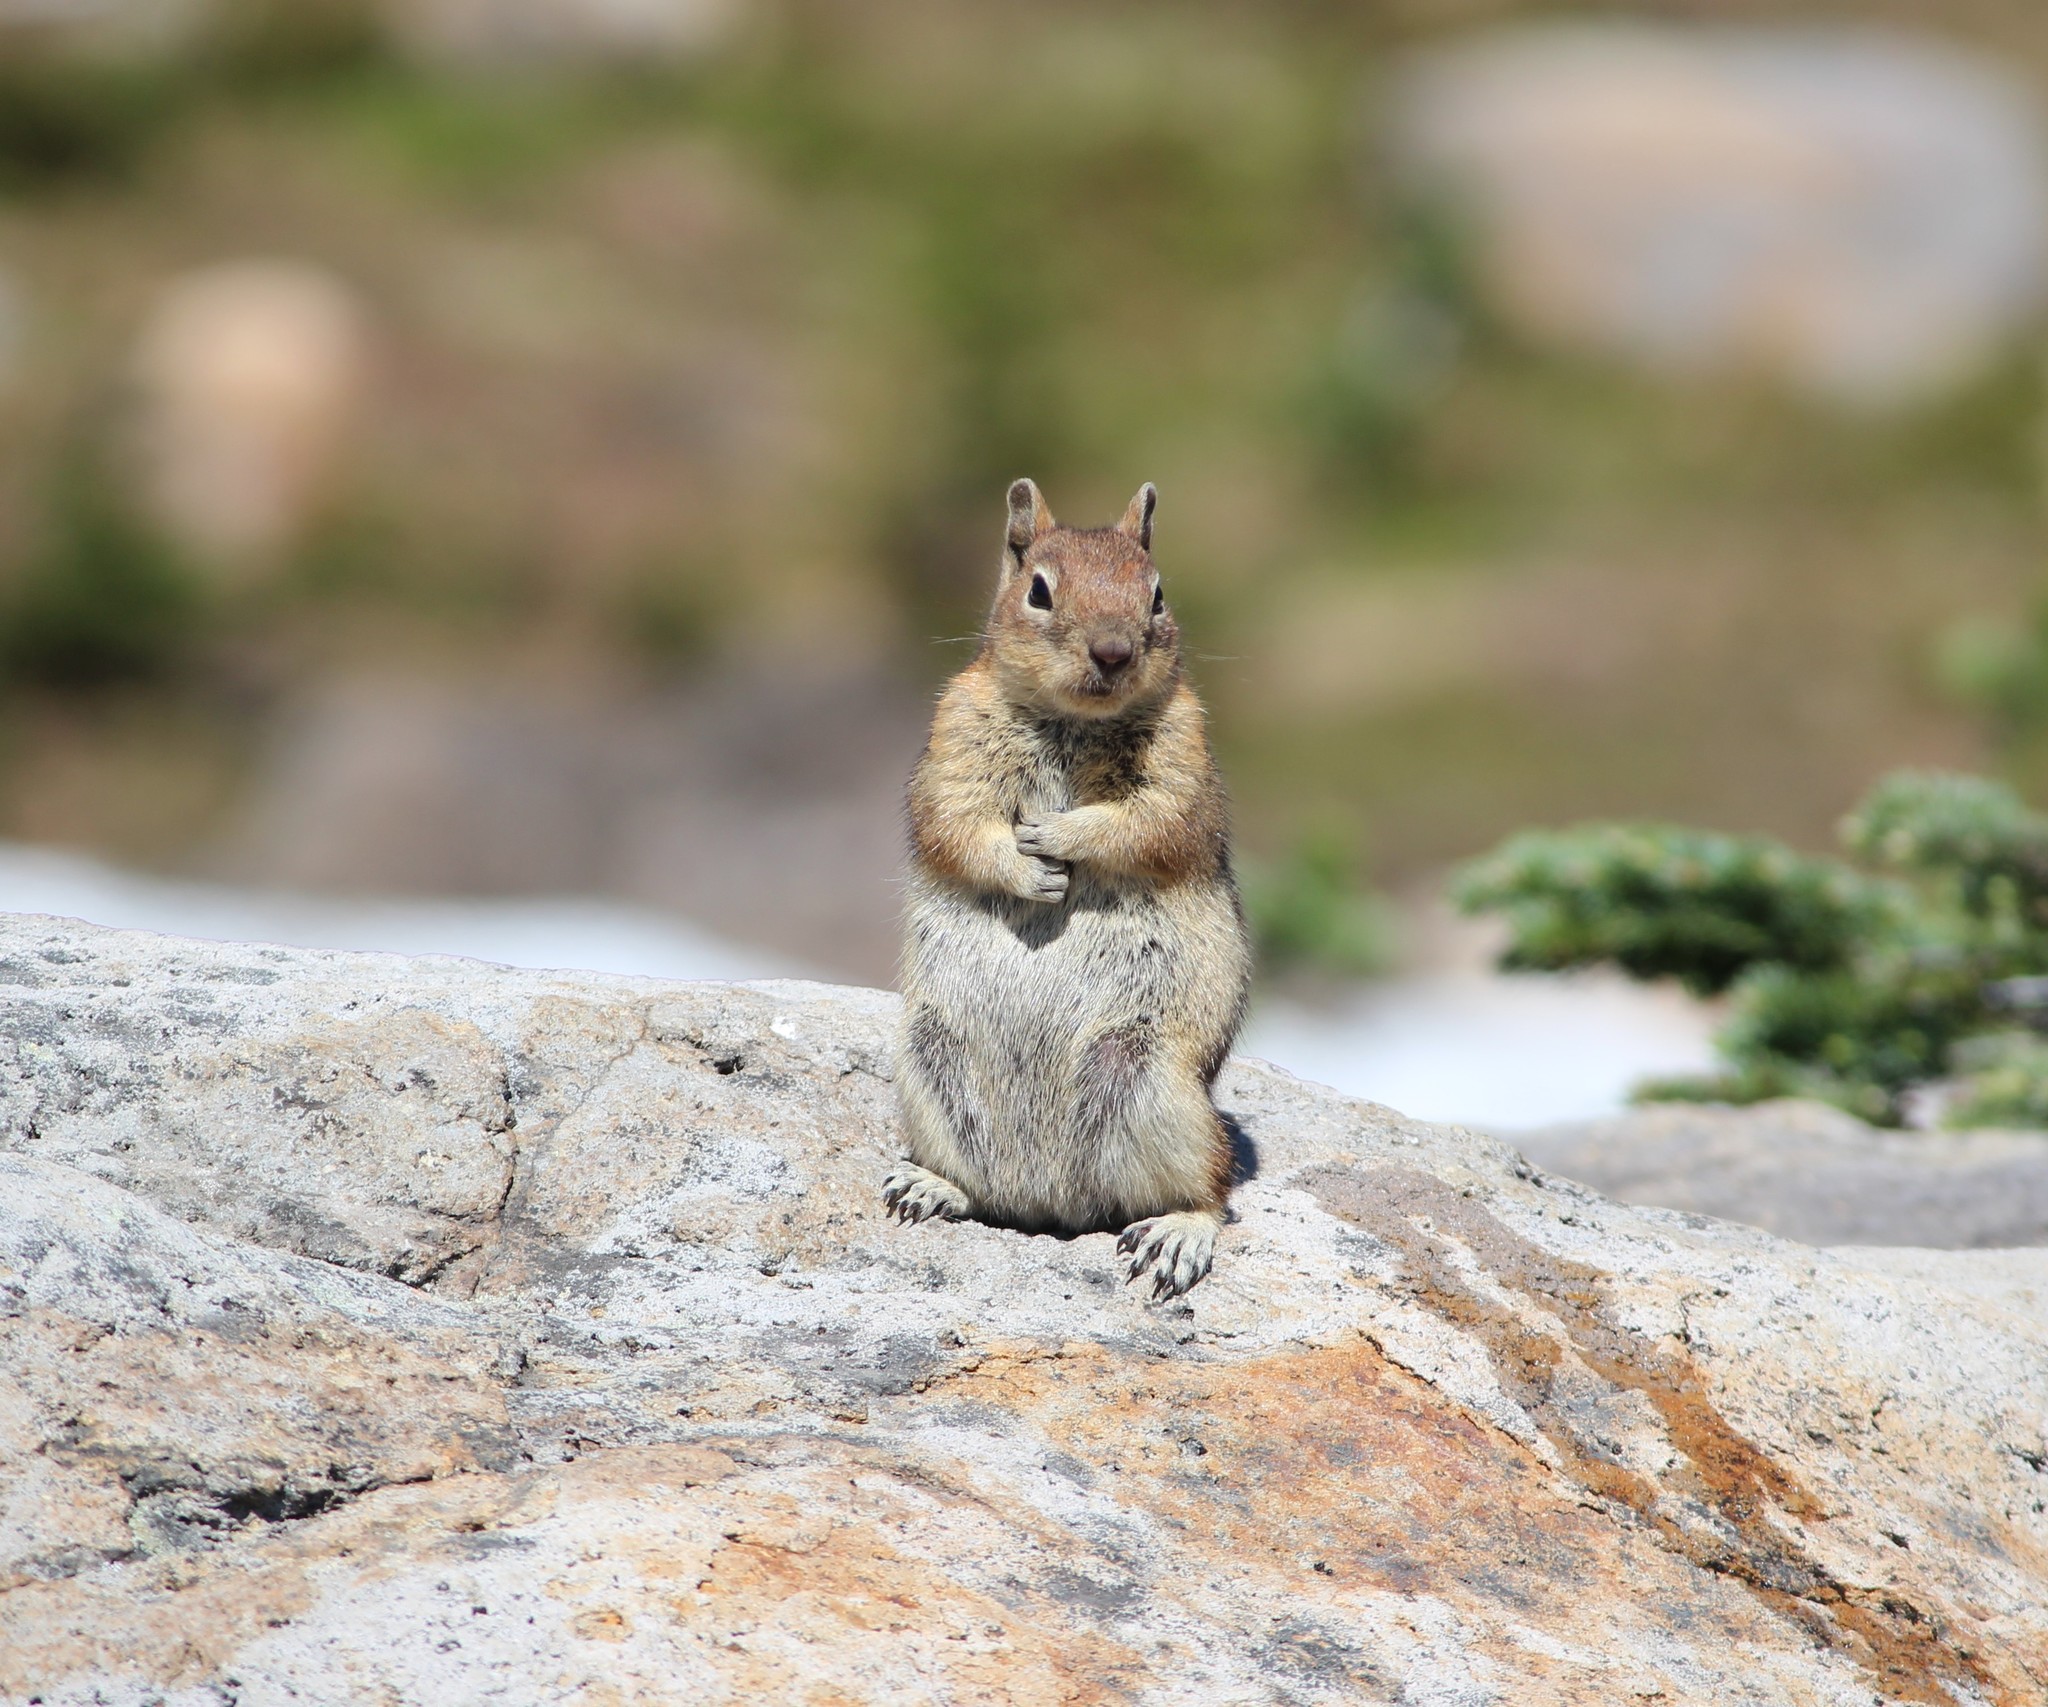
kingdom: Animalia
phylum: Chordata
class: Mammalia
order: Rodentia
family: Sciuridae
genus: Callospermophilus
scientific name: Callospermophilus saturatus
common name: Cascade golden-mantled ground squirrel
